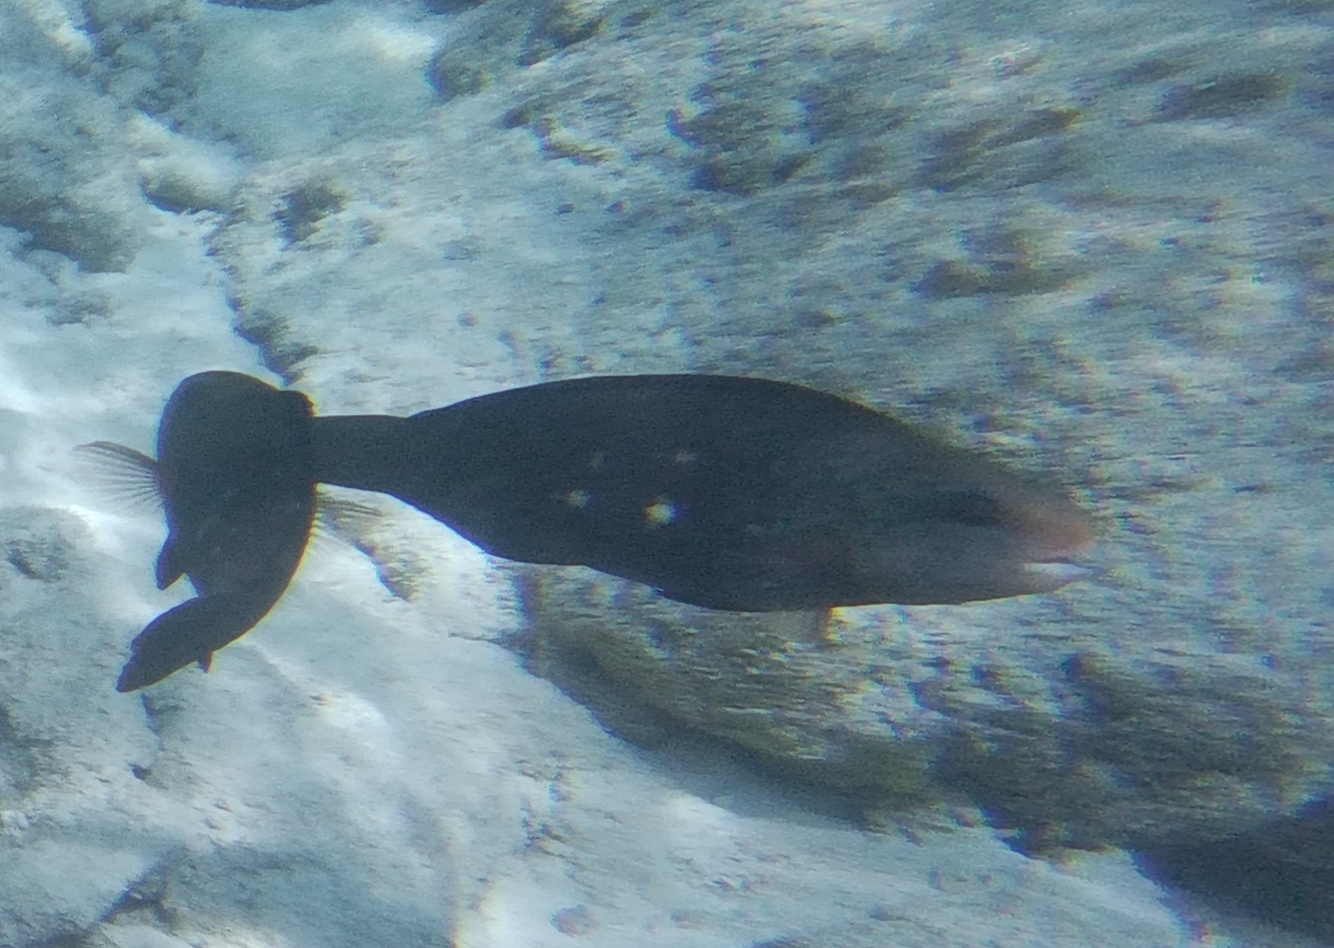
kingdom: Animalia
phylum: Chordata
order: Perciformes
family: Scaridae
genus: Chlorurus
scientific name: Chlorurus sordidus
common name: Bullethead parrotfish
